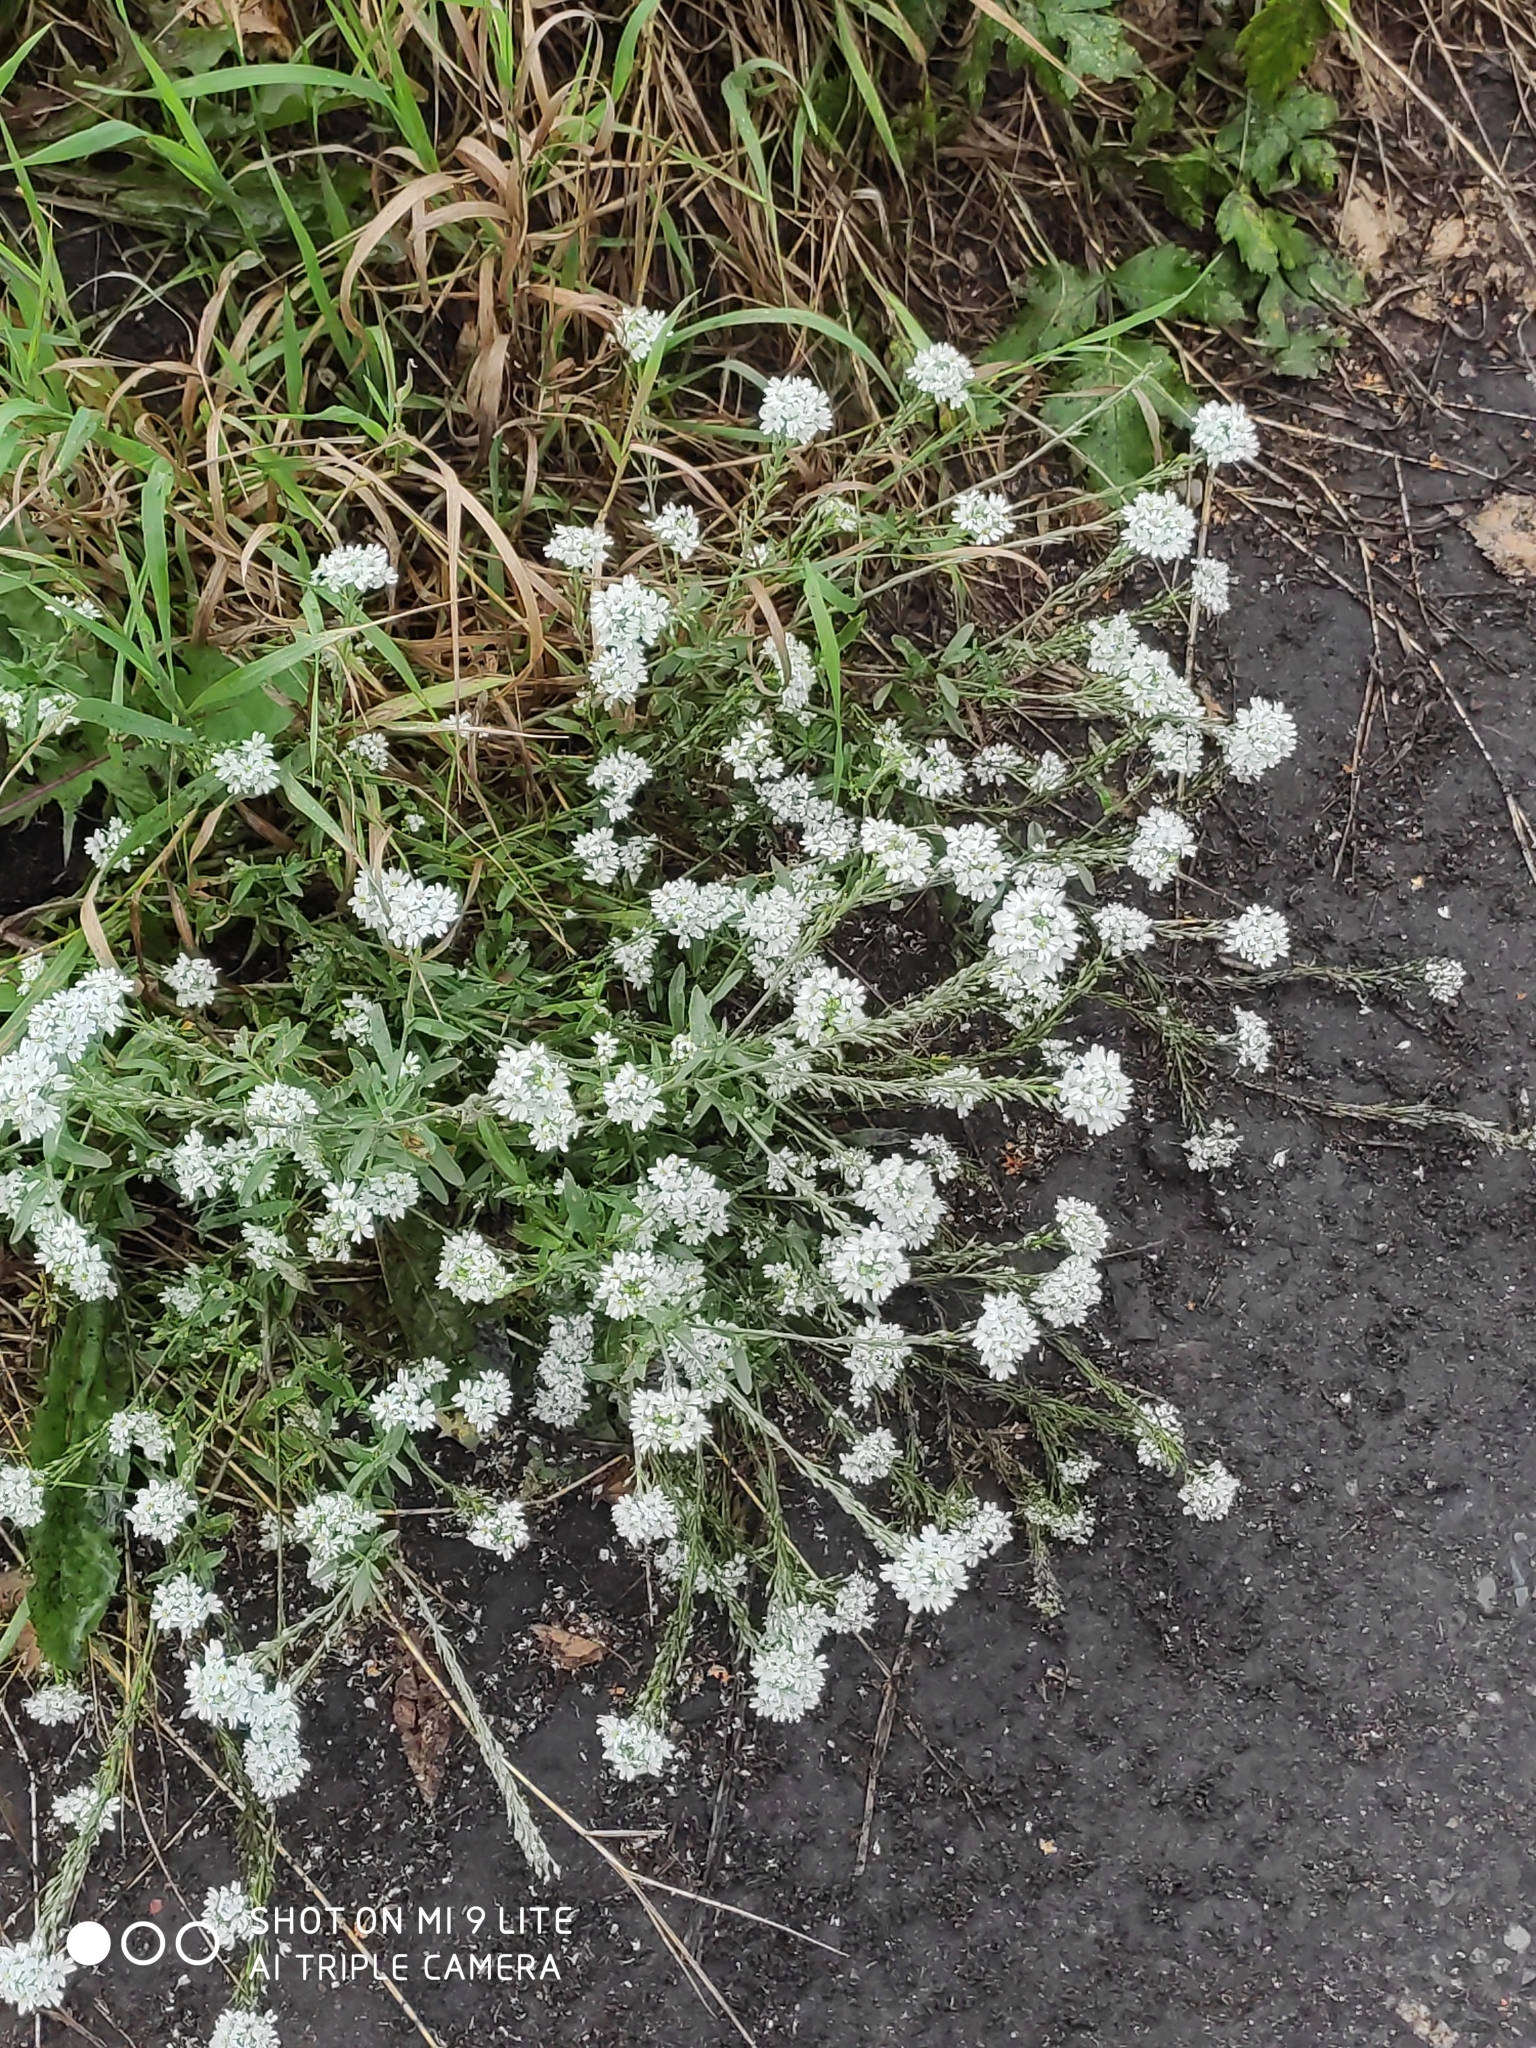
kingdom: Plantae
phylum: Tracheophyta
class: Magnoliopsida
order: Brassicales
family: Brassicaceae
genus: Berteroa
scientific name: Berteroa incana
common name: Hoary alison
